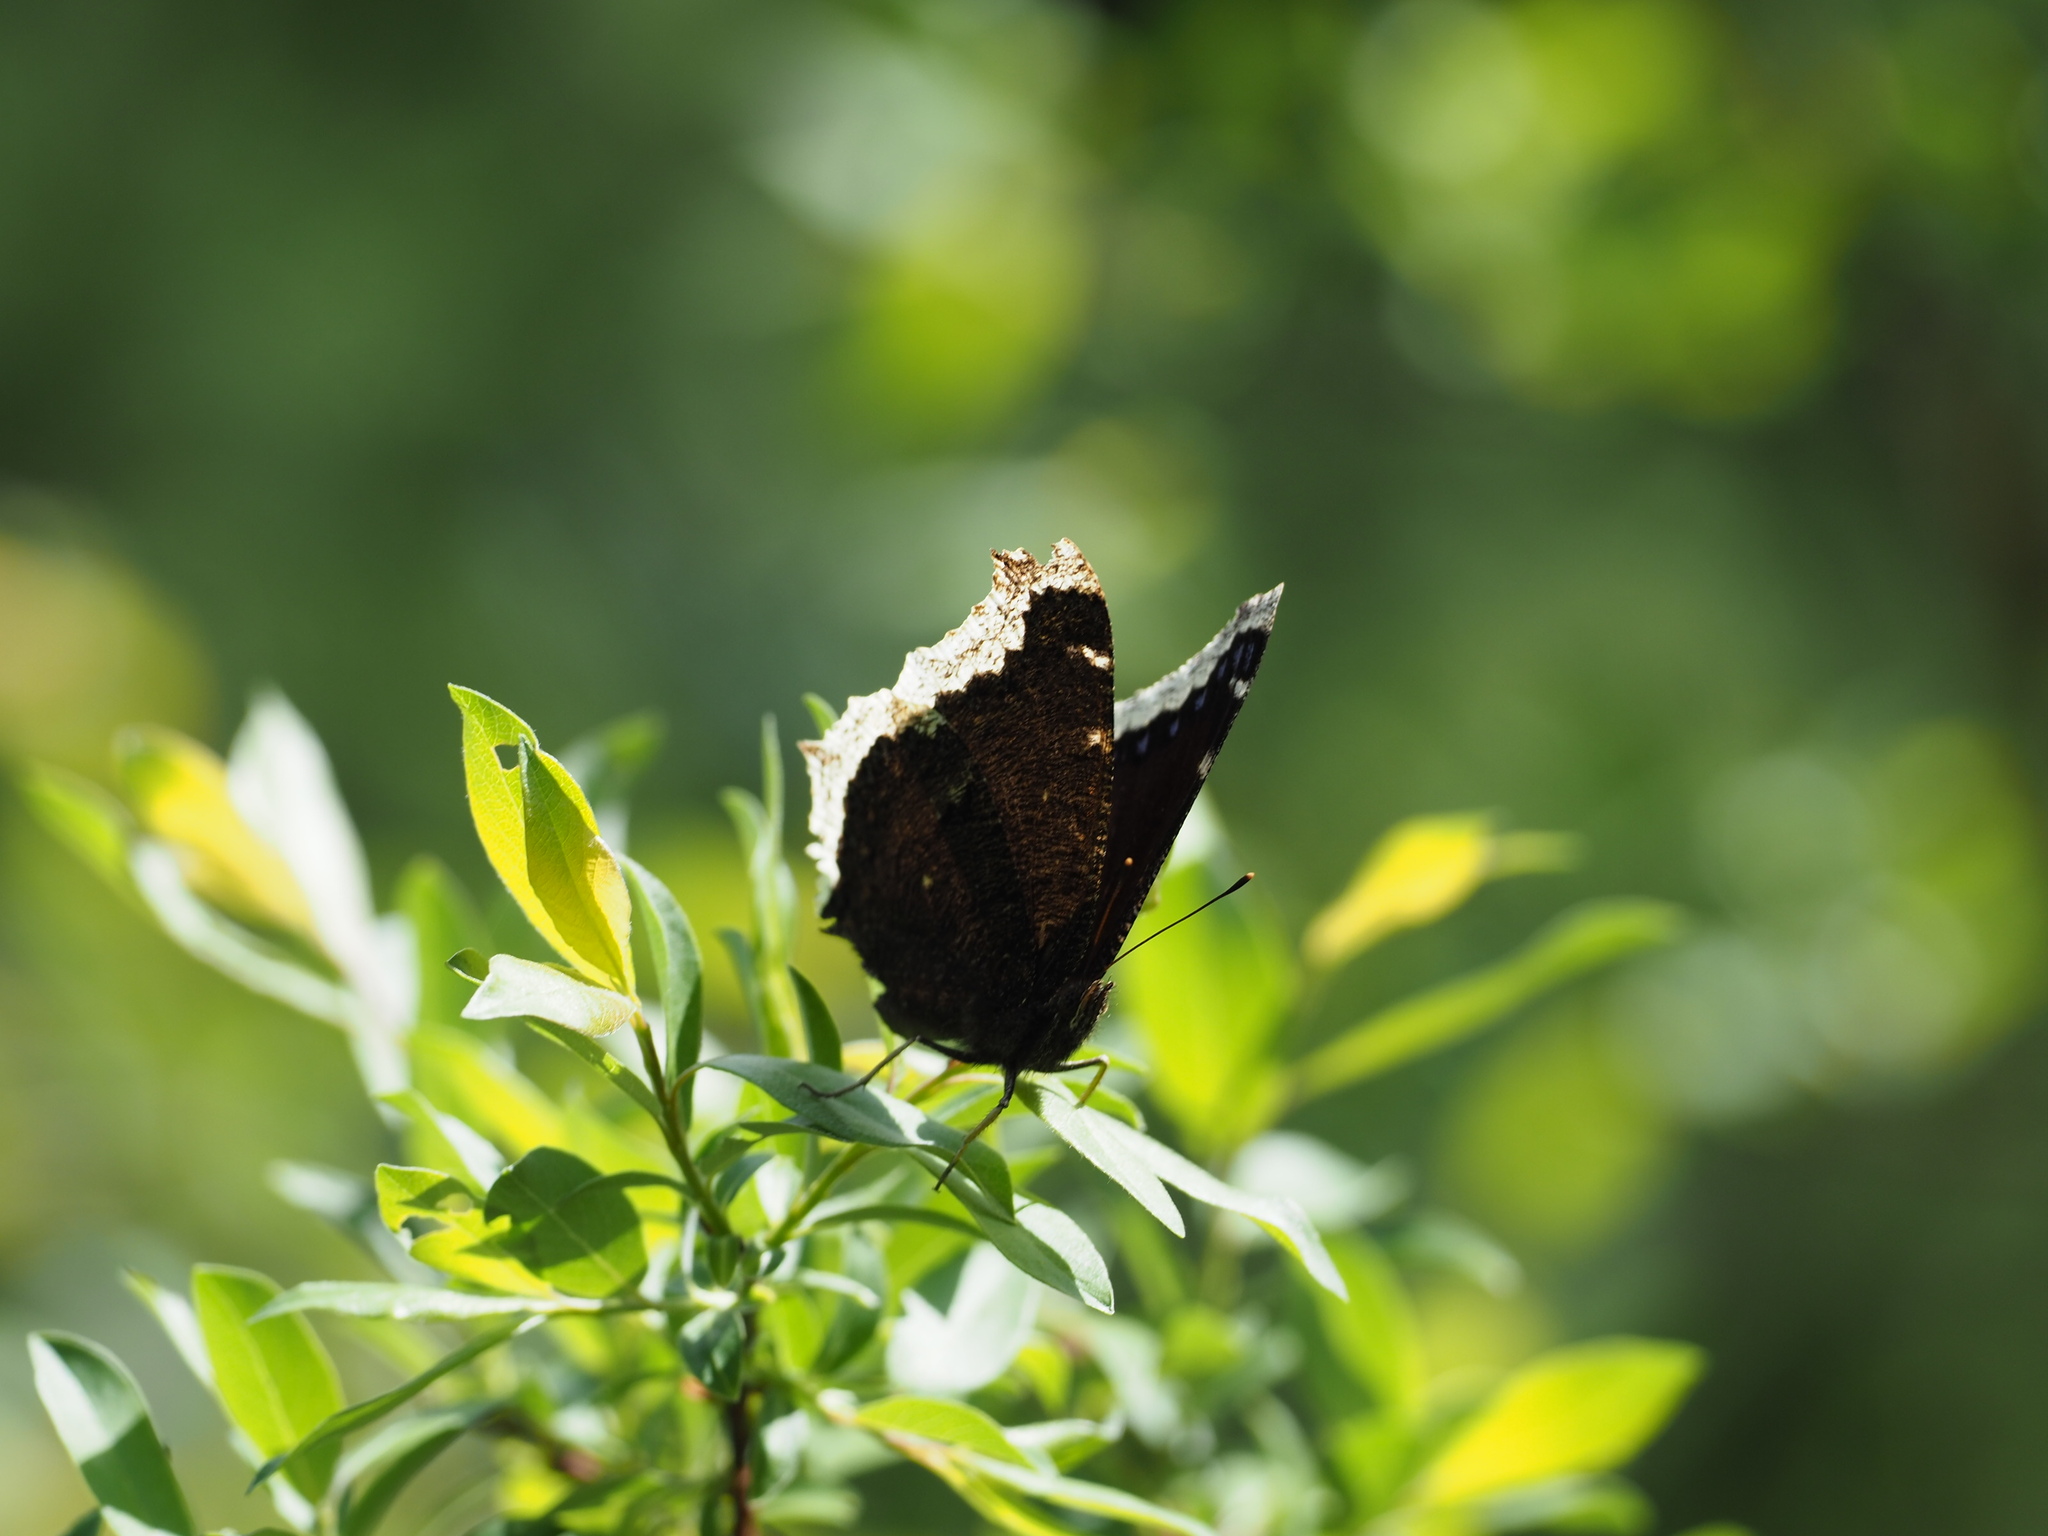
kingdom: Animalia
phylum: Arthropoda
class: Insecta
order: Lepidoptera
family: Nymphalidae
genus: Nymphalis
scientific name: Nymphalis antiopa
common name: Camberwell beauty
